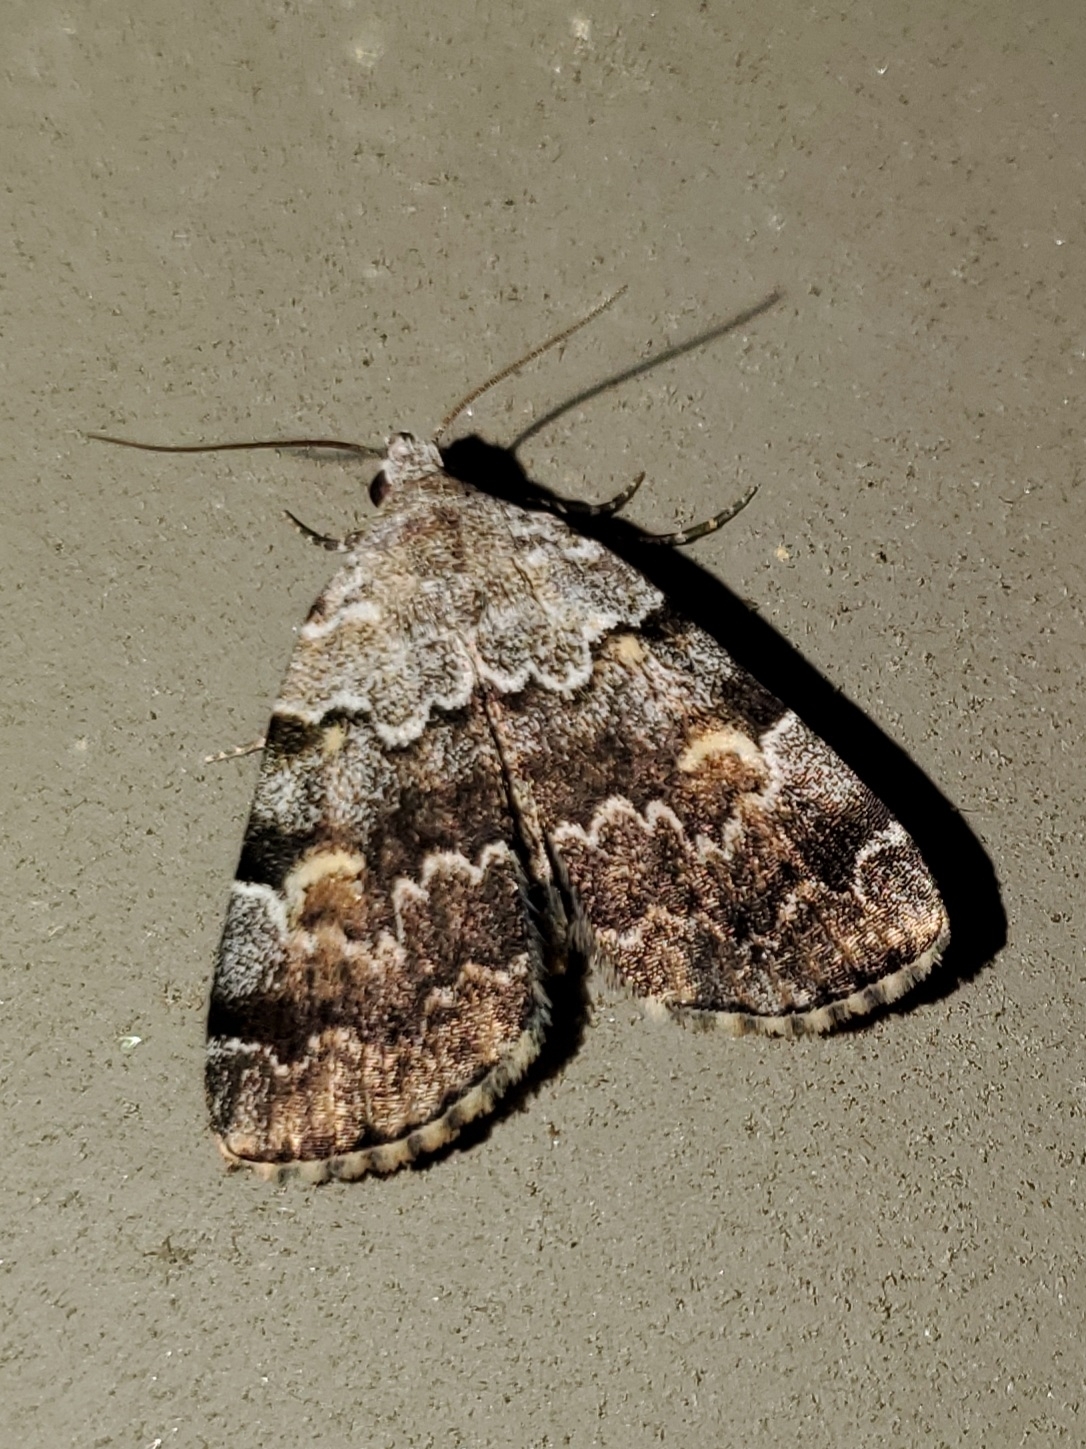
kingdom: Animalia
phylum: Arthropoda
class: Insecta
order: Lepidoptera
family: Erebidae
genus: Idia
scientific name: Idia americalis
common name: American idia moth
